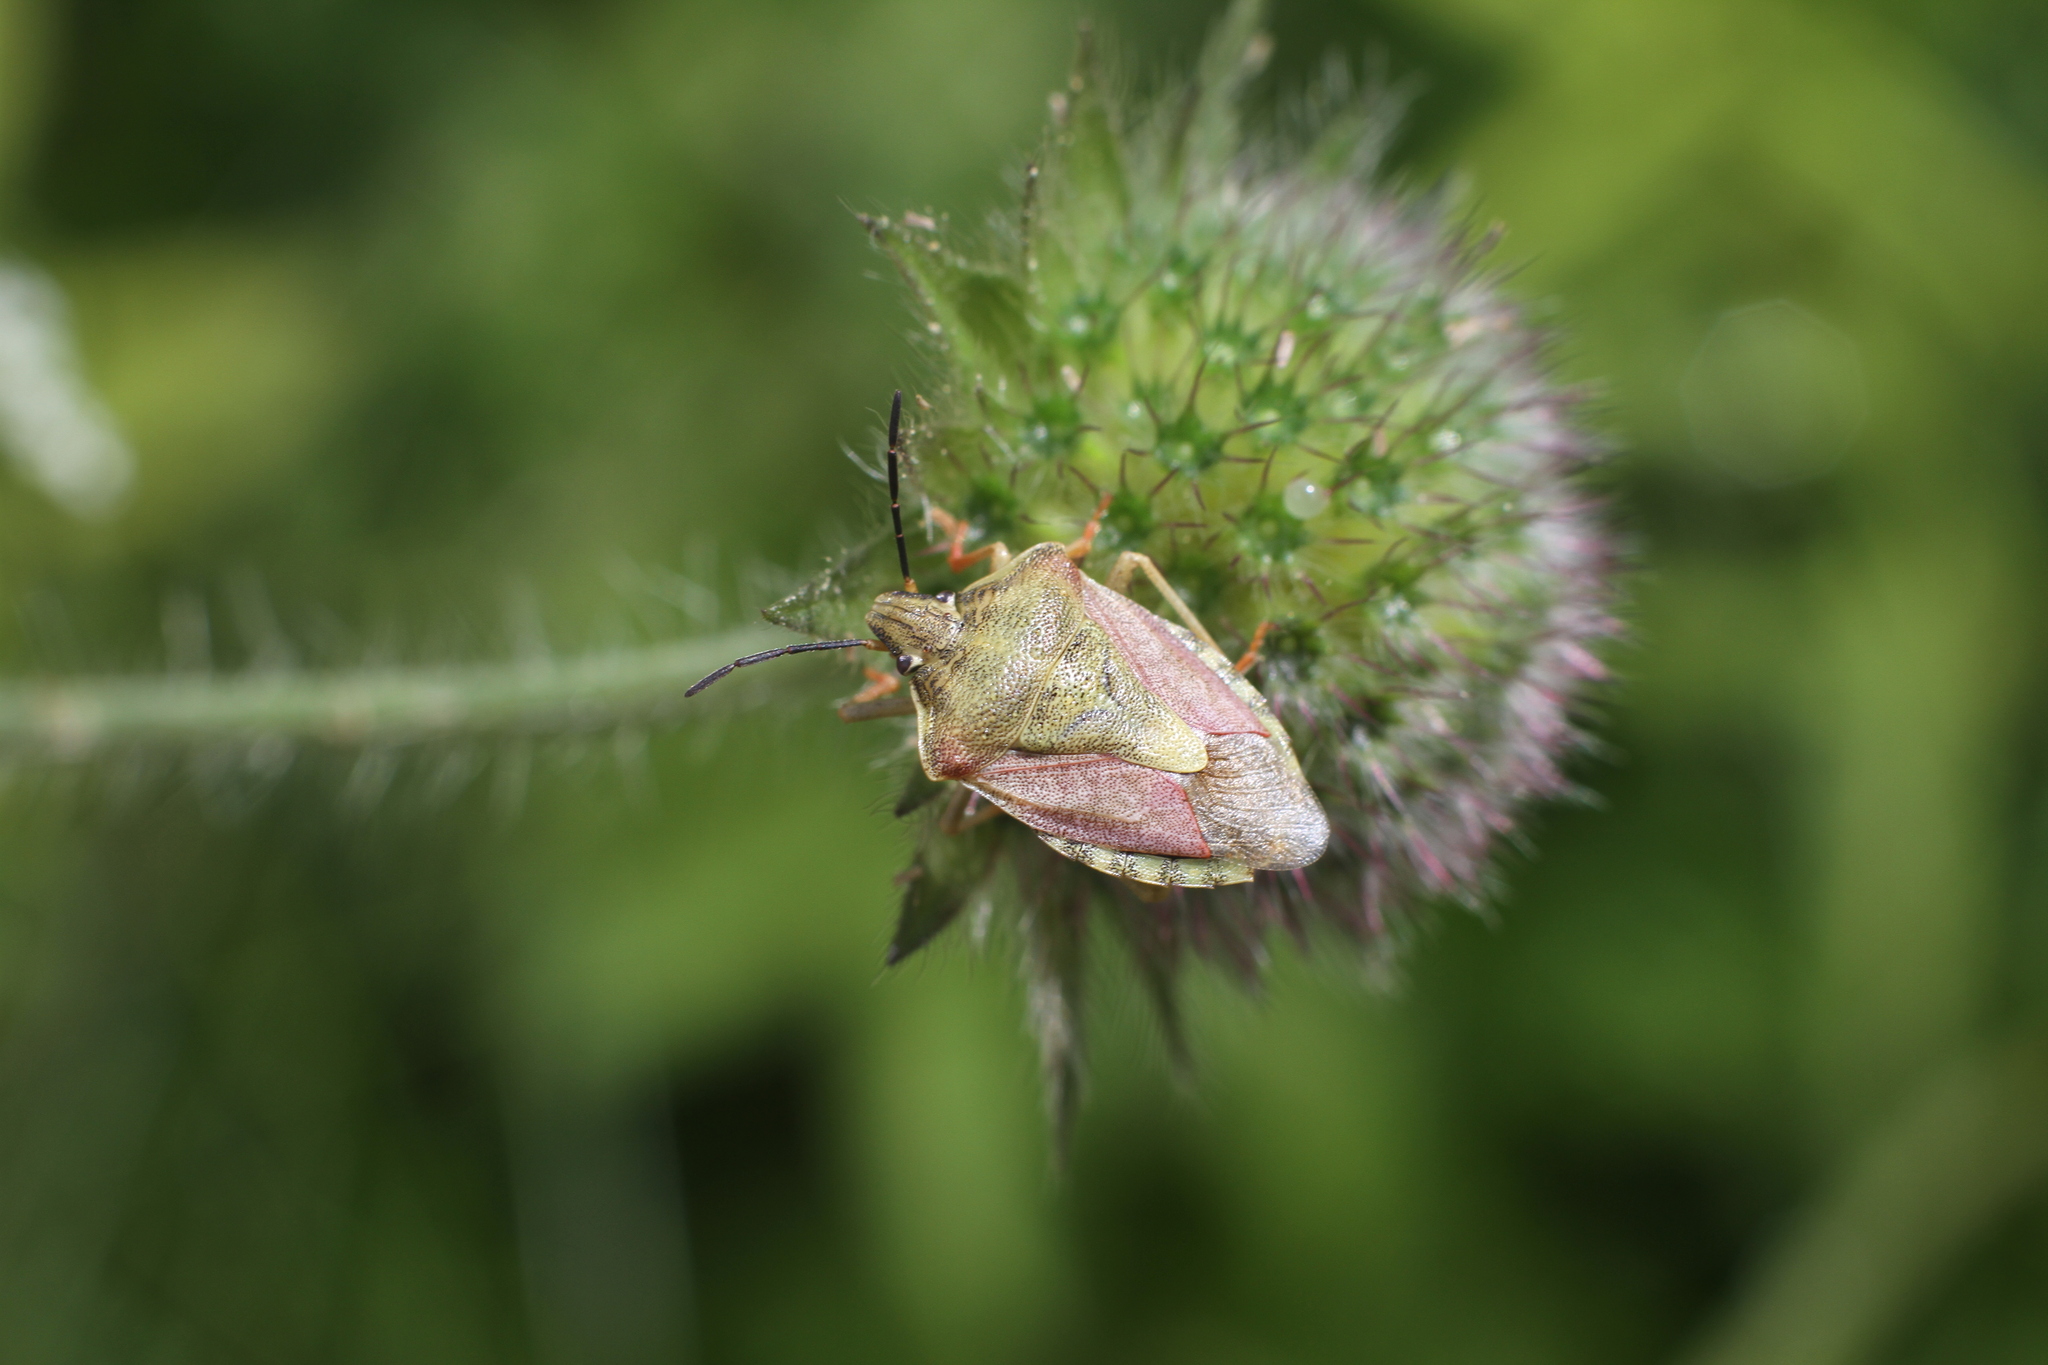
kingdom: Animalia
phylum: Arthropoda
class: Insecta
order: Hemiptera
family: Pentatomidae
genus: Carpocoris
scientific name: Carpocoris purpureipennis
